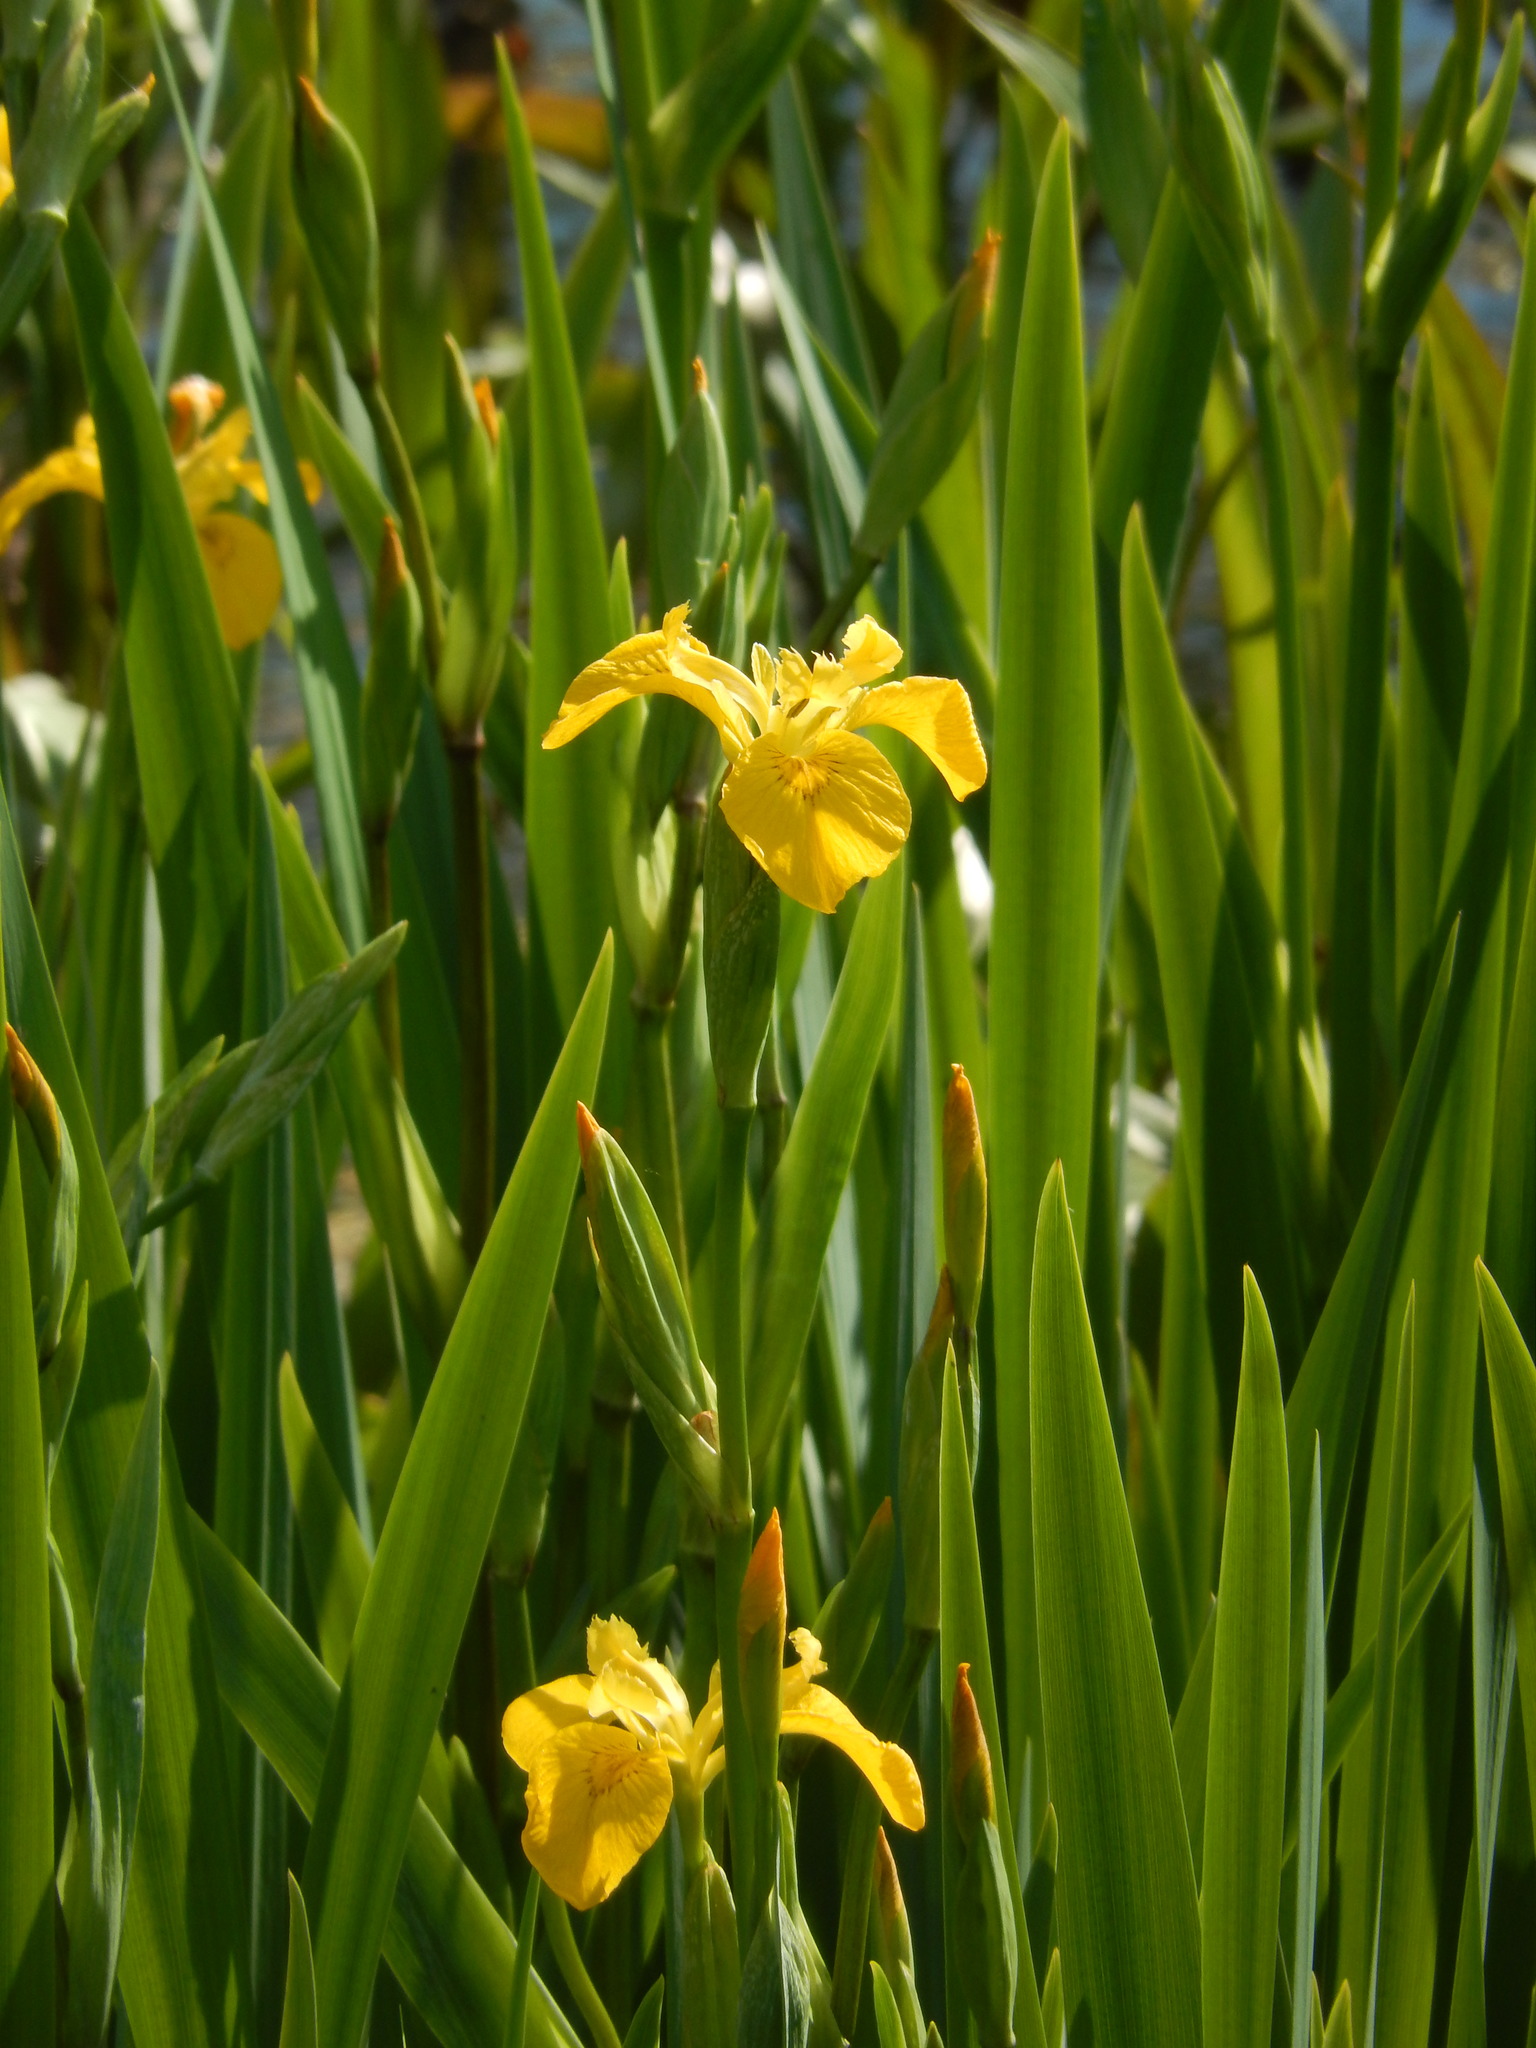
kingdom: Plantae
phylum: Tracheophyta
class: Liliopsida
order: Asparagales
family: Iridaceae
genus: Iris
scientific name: Iris pseudacorus
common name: Yellow flag
